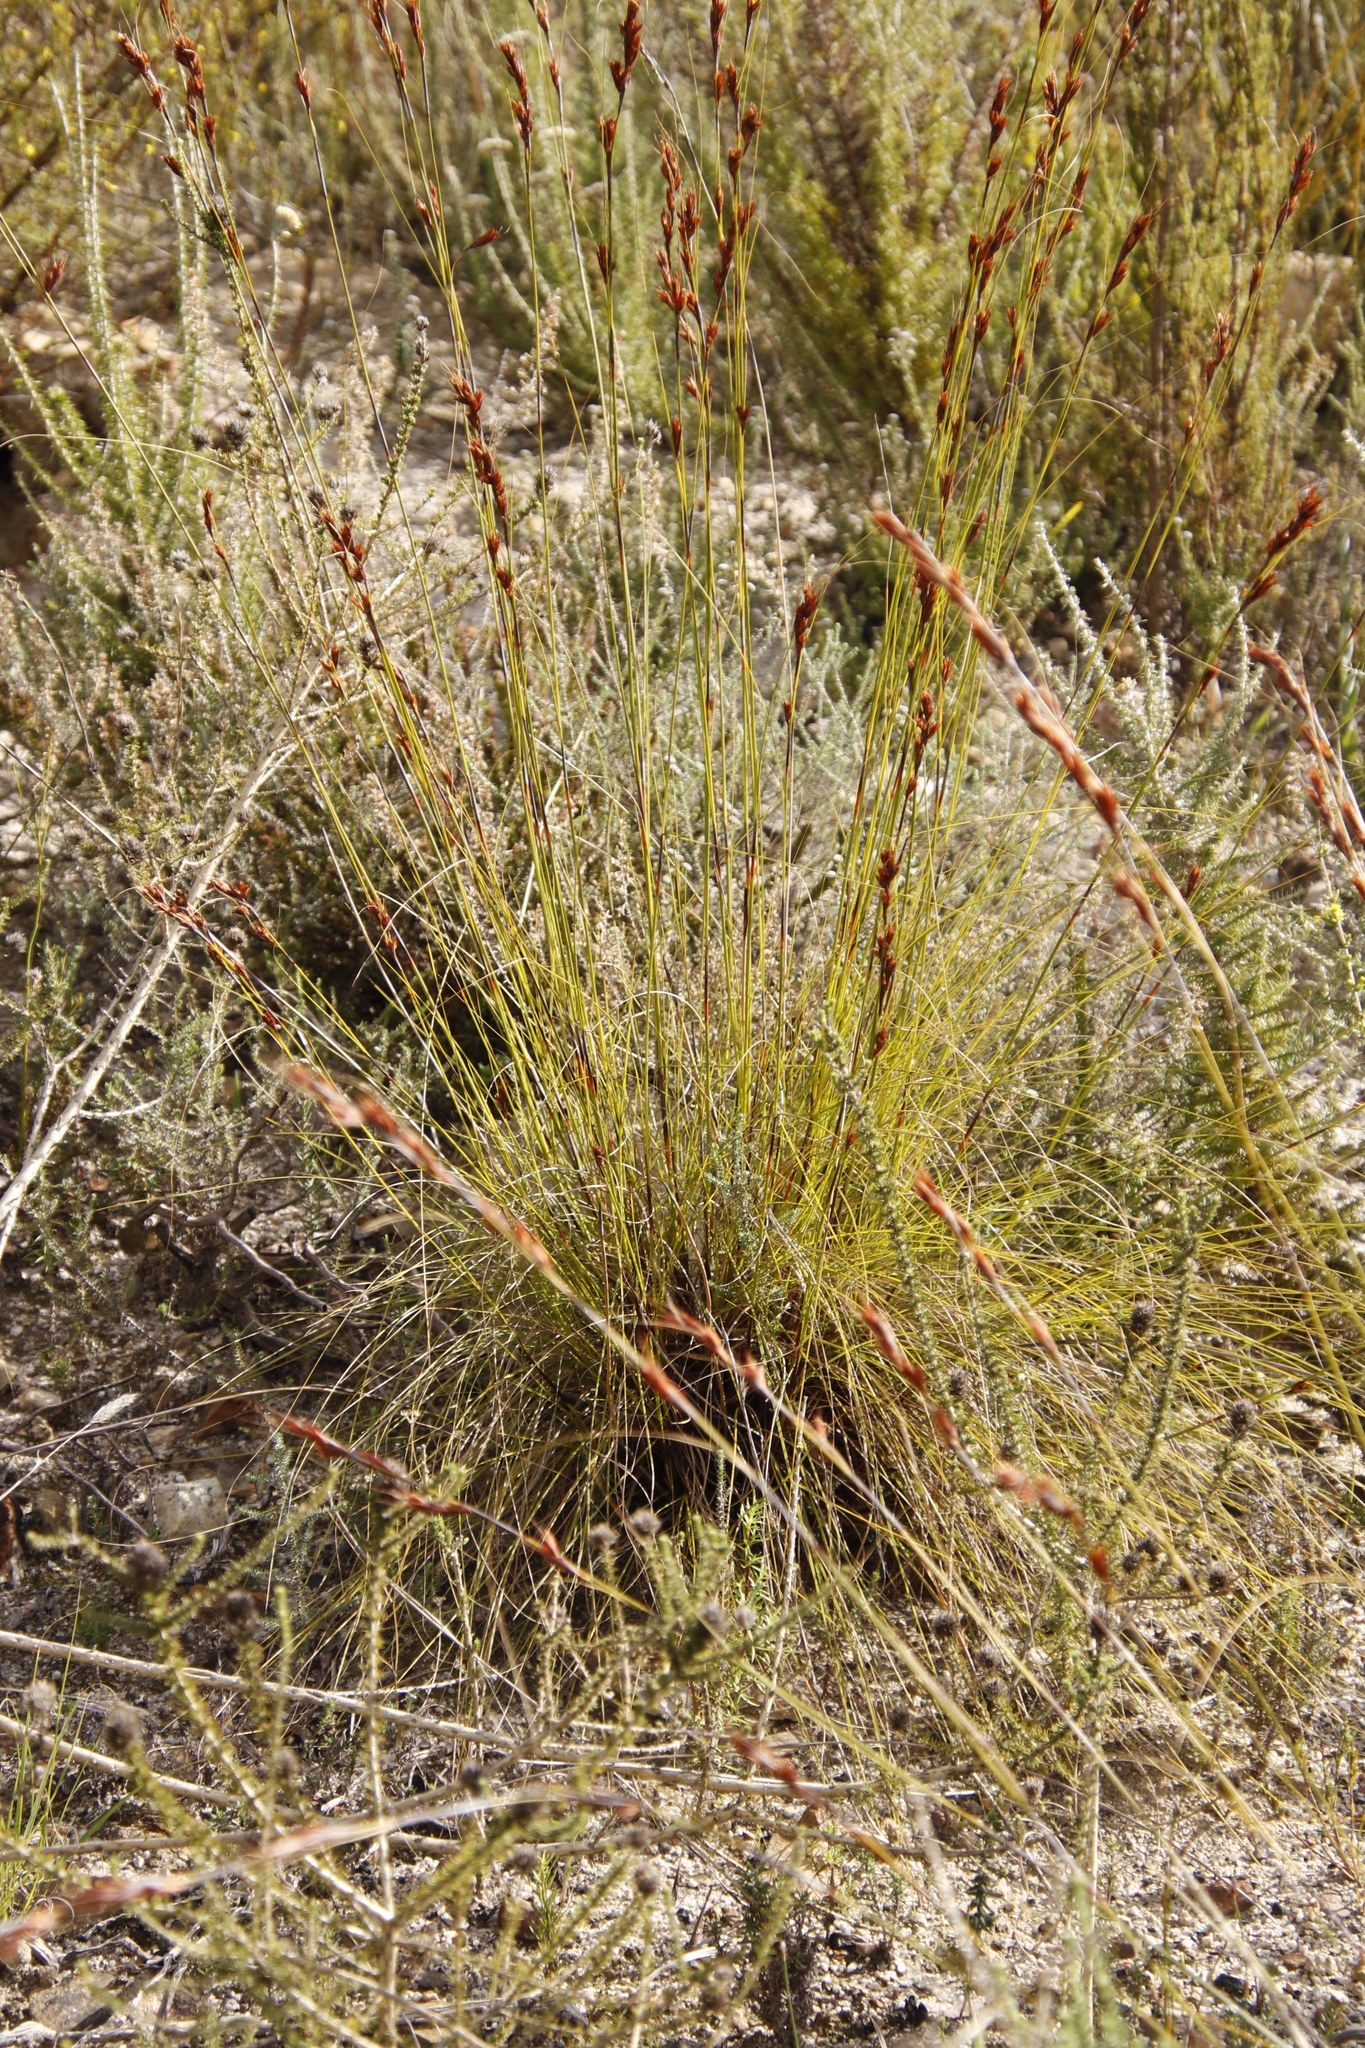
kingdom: Plantae
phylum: Tracheophyta
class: Liliopsida
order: Poales
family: Cyperaceae
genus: Tetraria
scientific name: Tetraria ustulata
